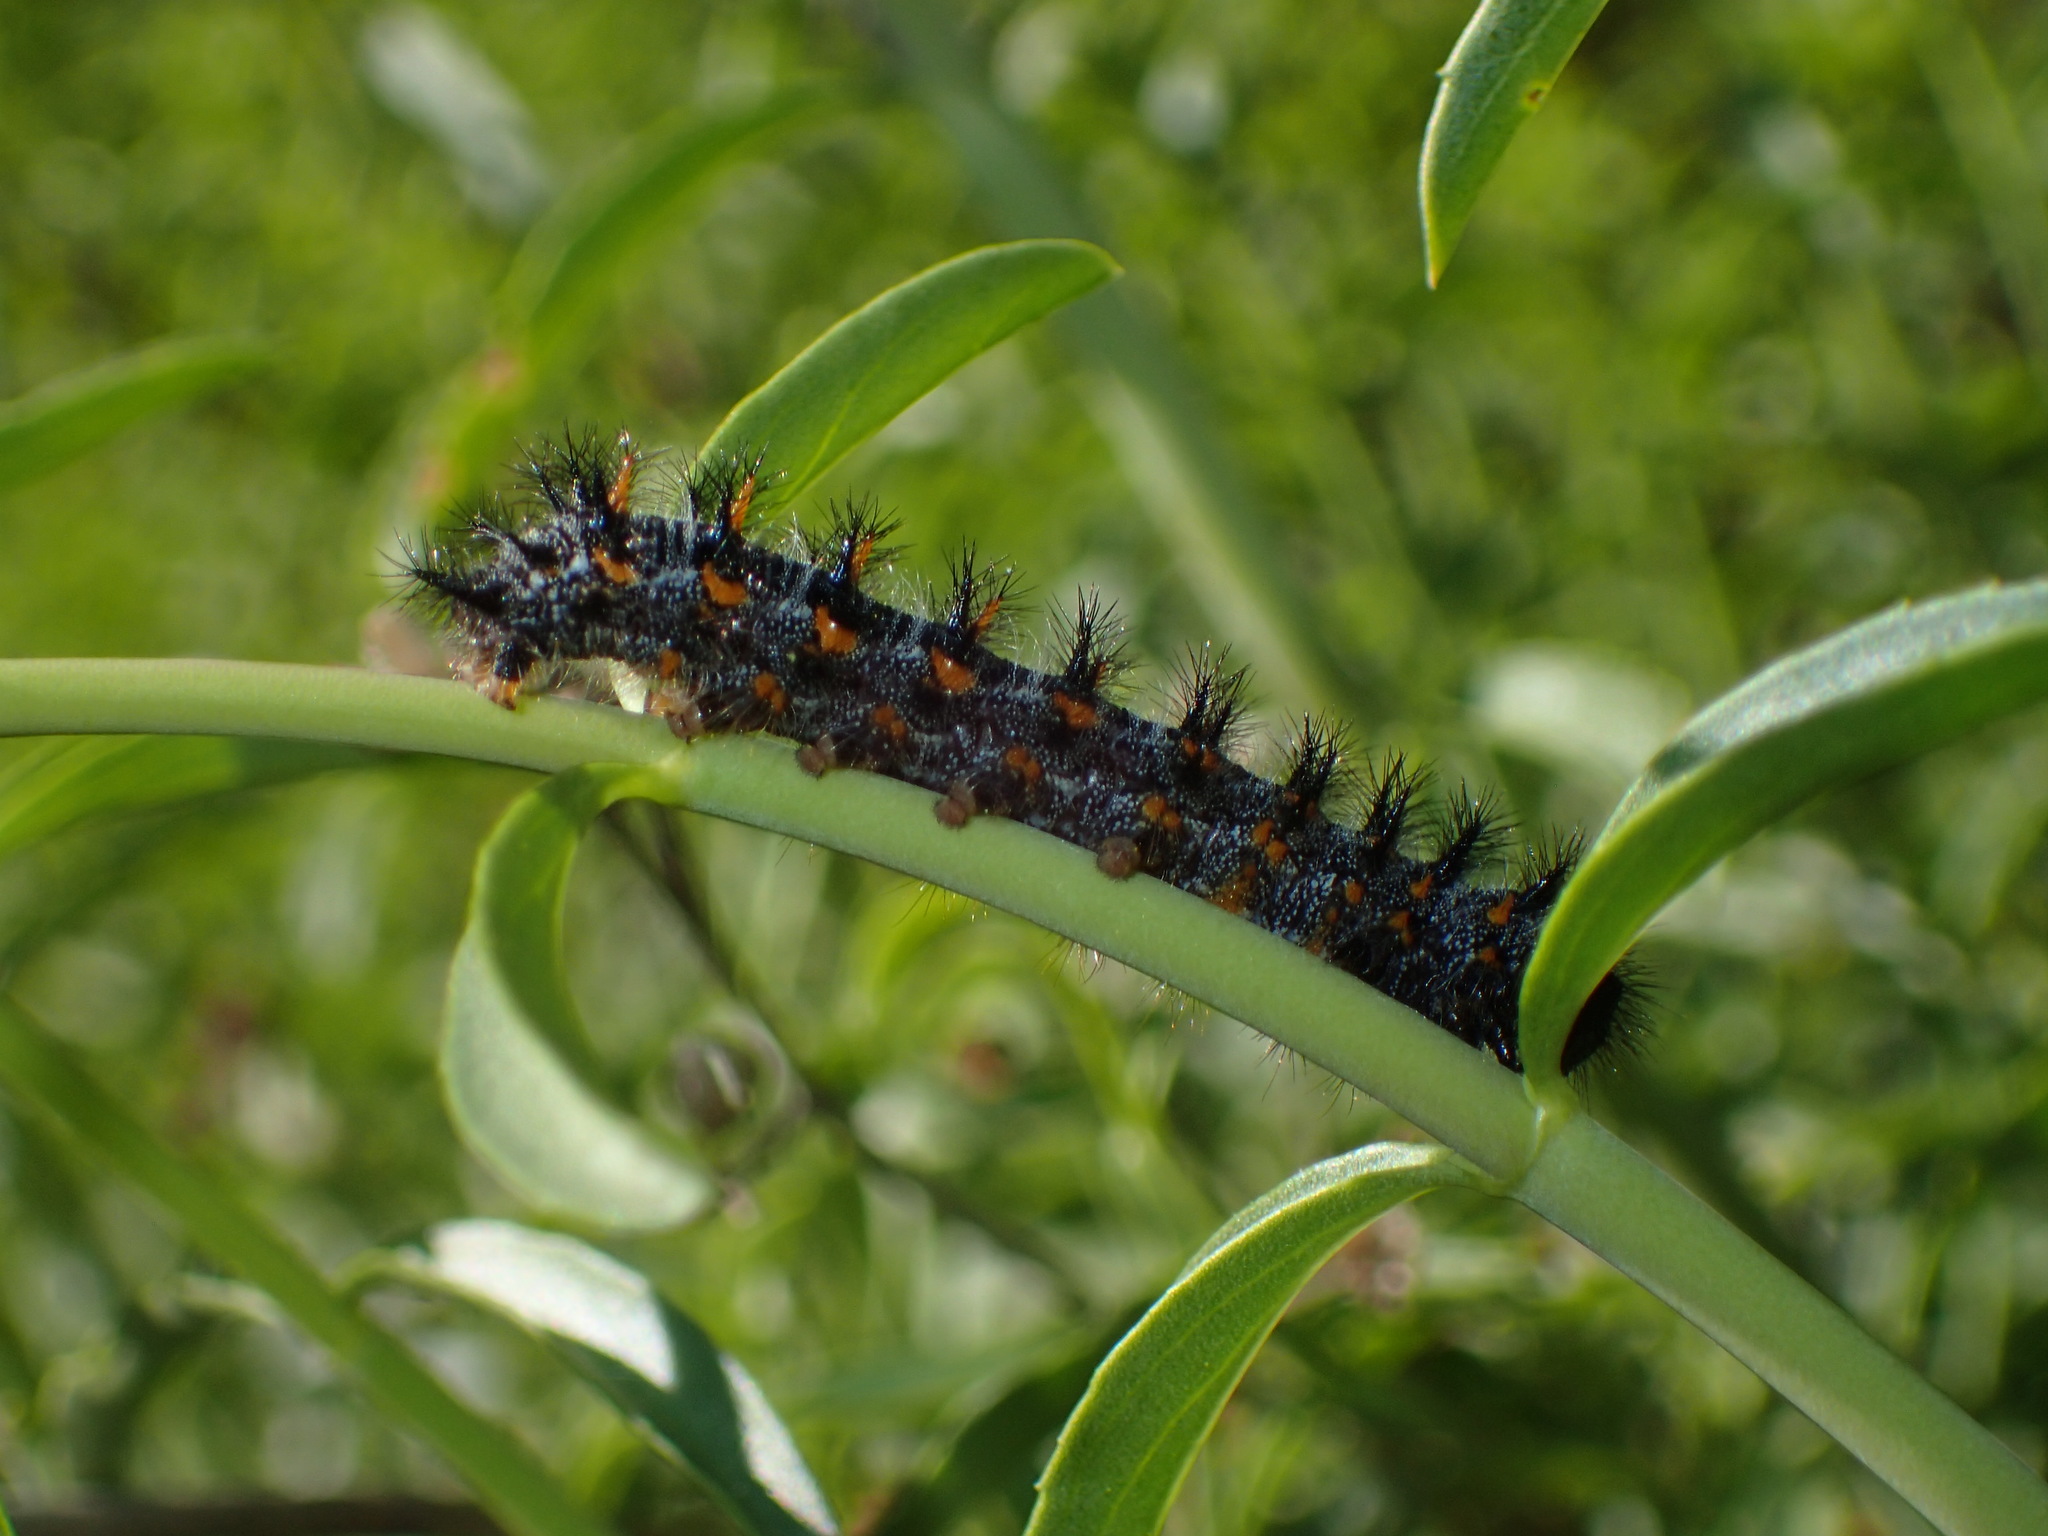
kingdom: Animalia
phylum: Arthropoda
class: Insecta
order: Lepidoptera
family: Nymphalidae
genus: Occidryas
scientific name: Occidryas chalcedona
